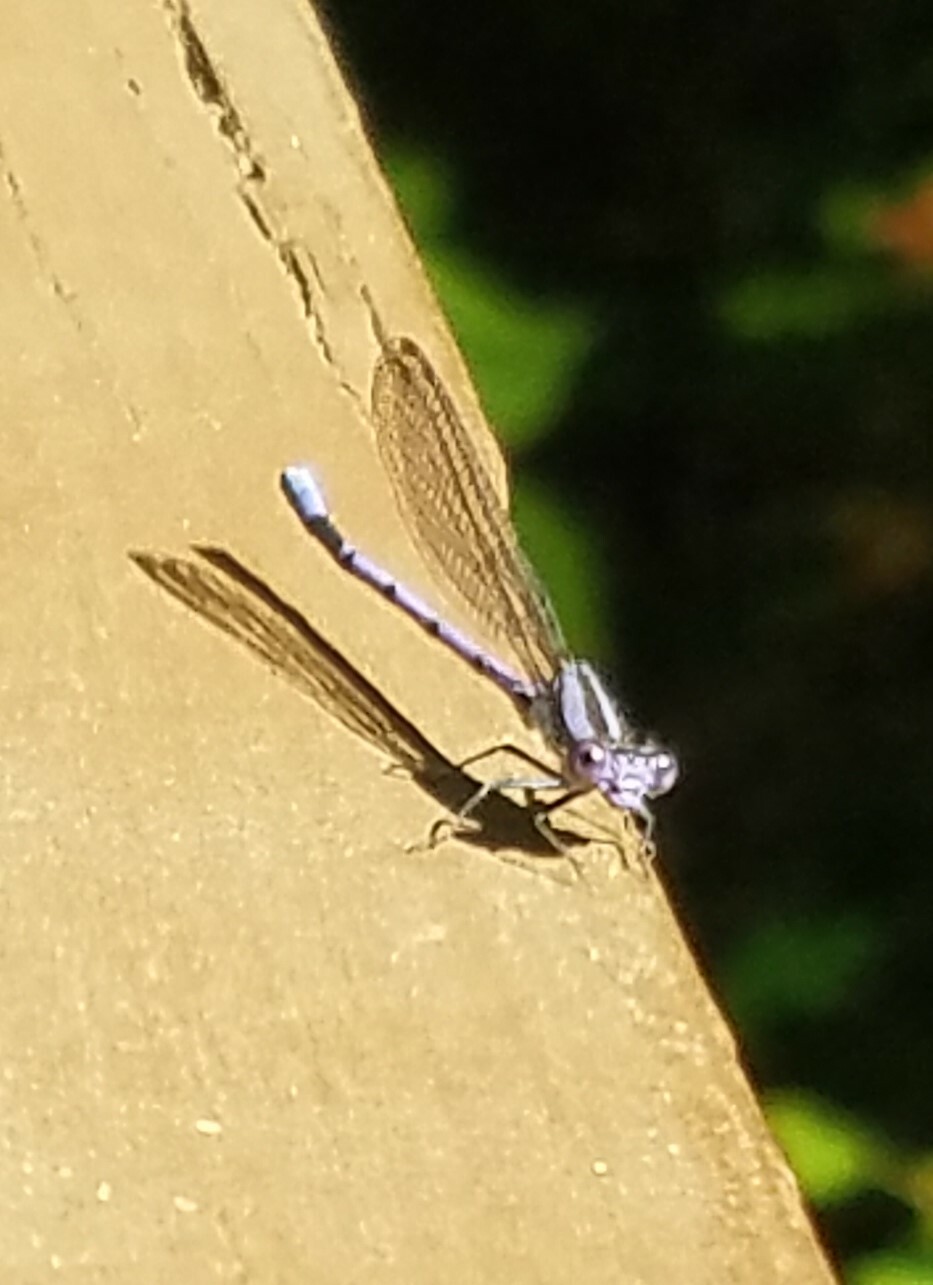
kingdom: Animalia
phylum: Arthropoda
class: Insecta
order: Odonata
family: Coenagrionidae
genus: Argia
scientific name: Argia fumipennis
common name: Variable dancer
